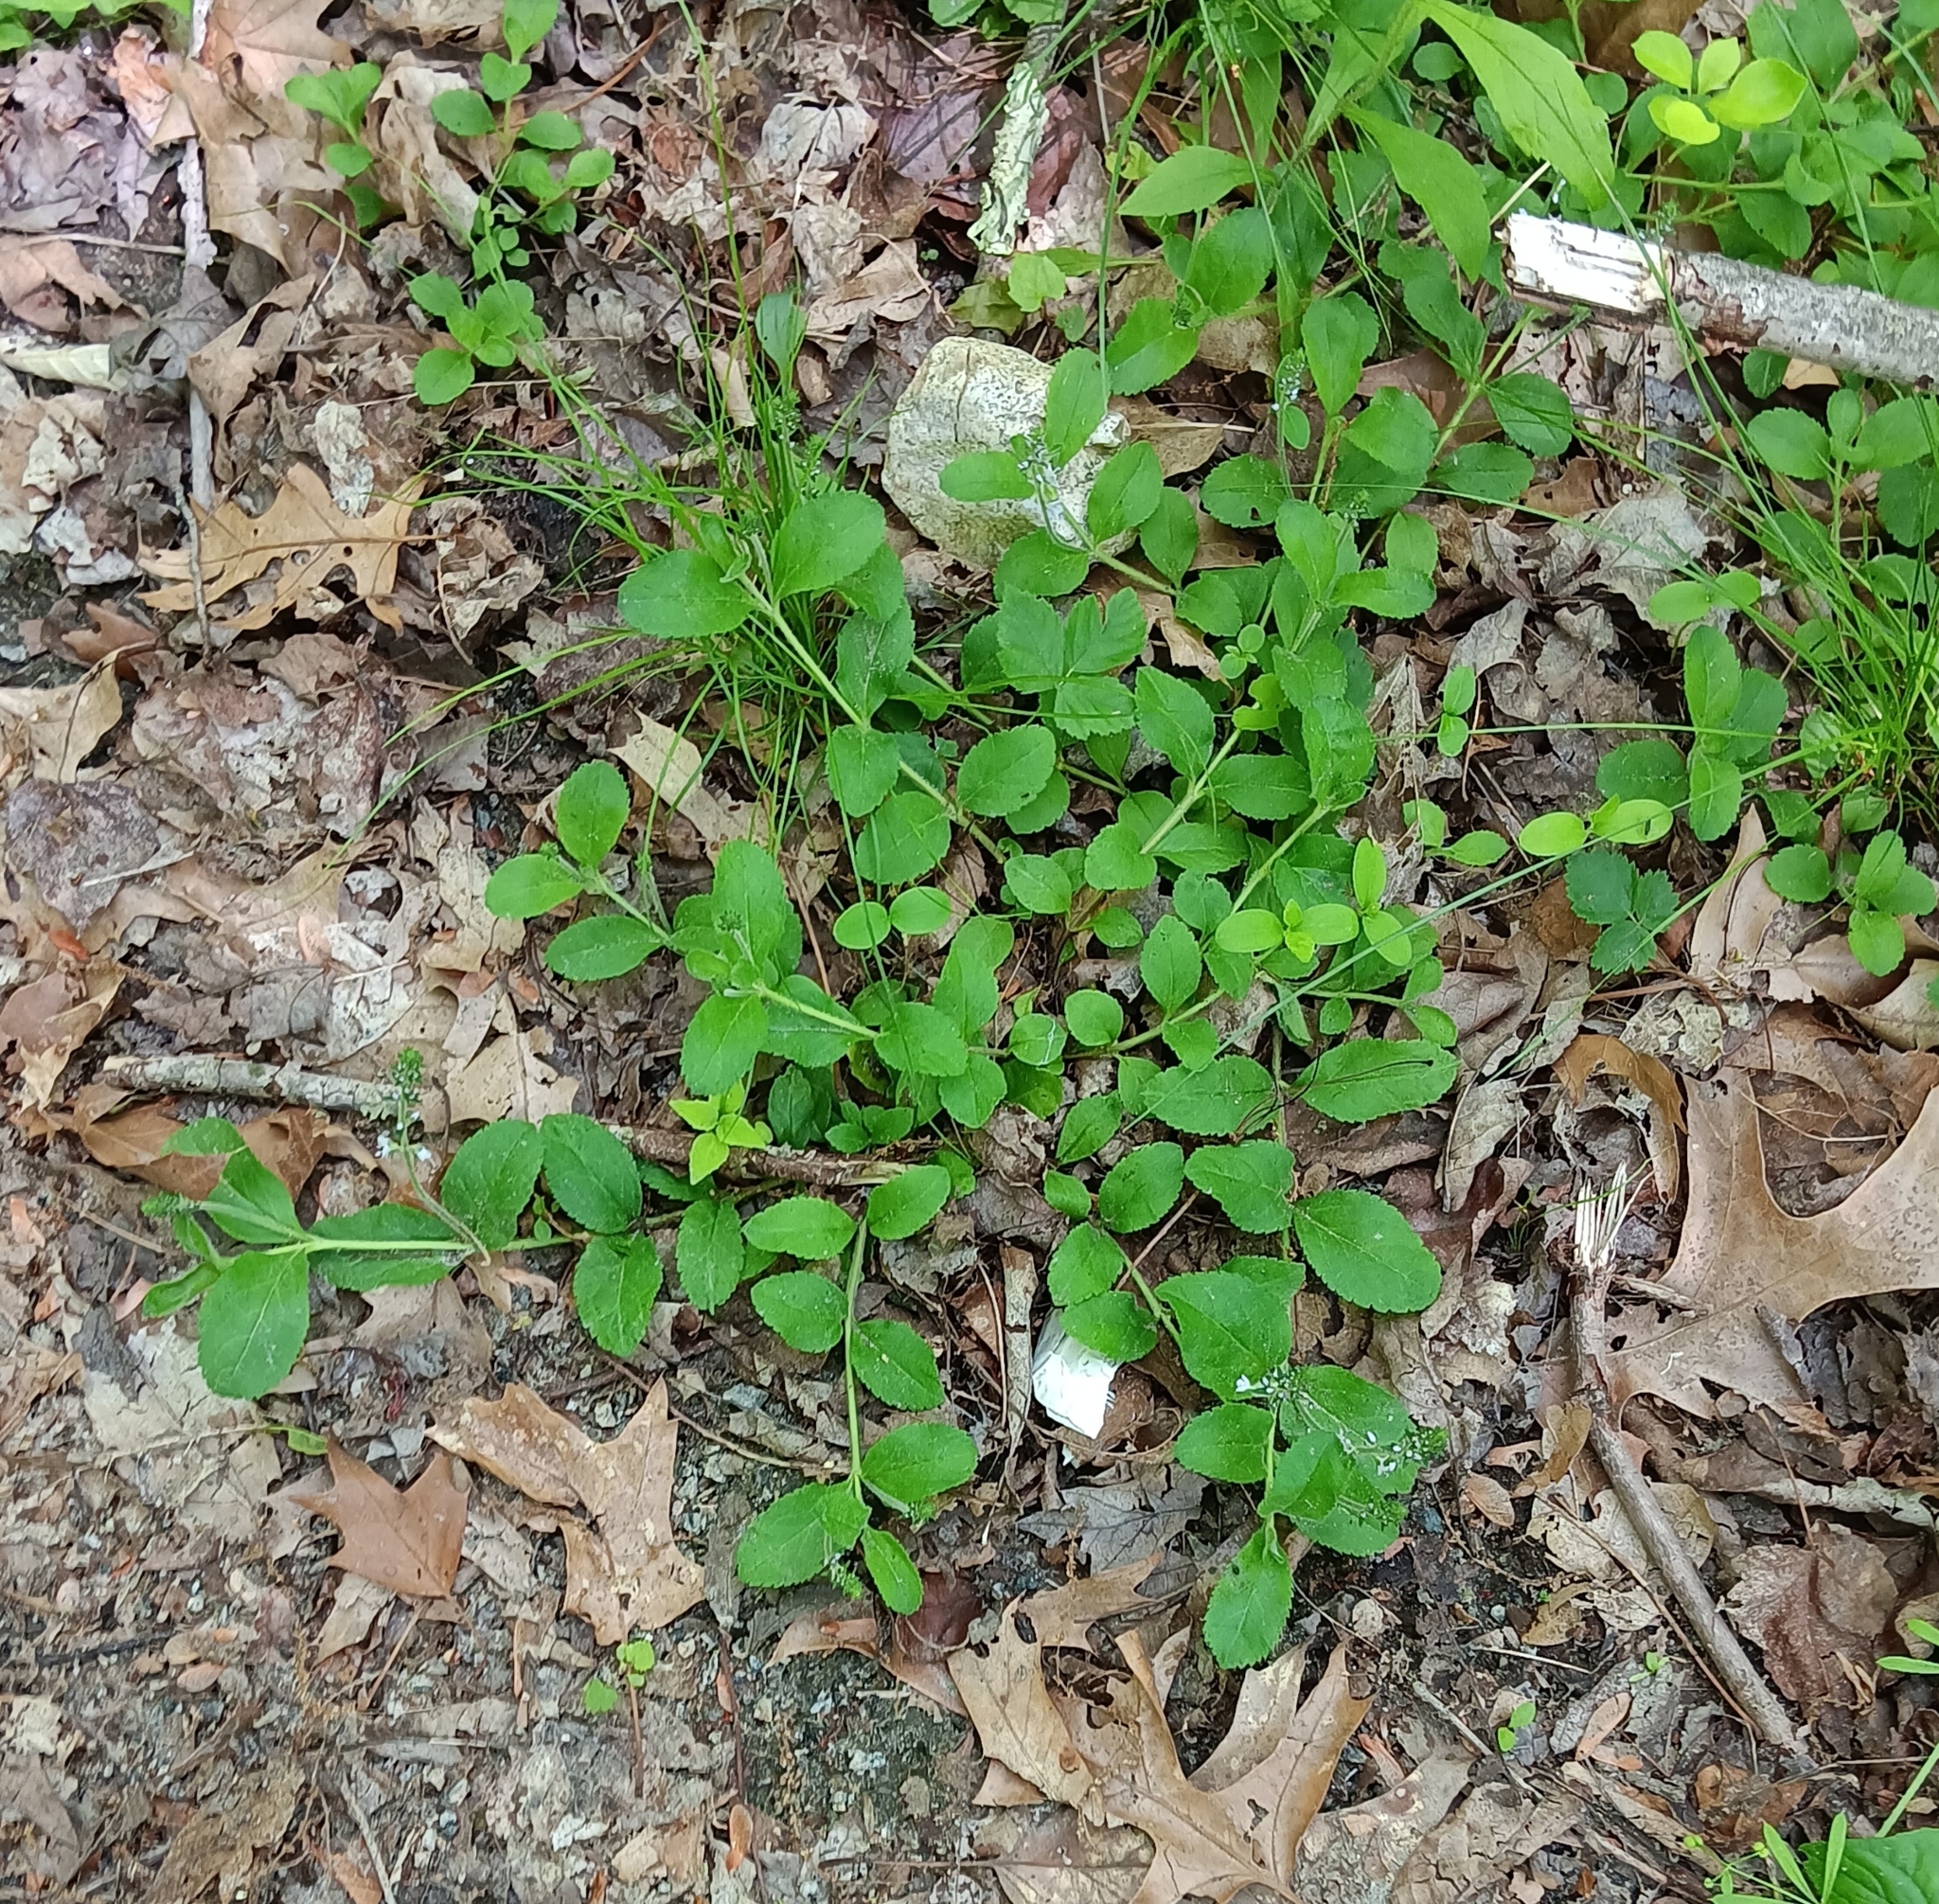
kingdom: Plantae
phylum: Tracheophyta
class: Magnoliopsida
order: Lamiales
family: Plantaginaceae
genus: Veronica
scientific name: Veronica officinalis
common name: Common speedwell
